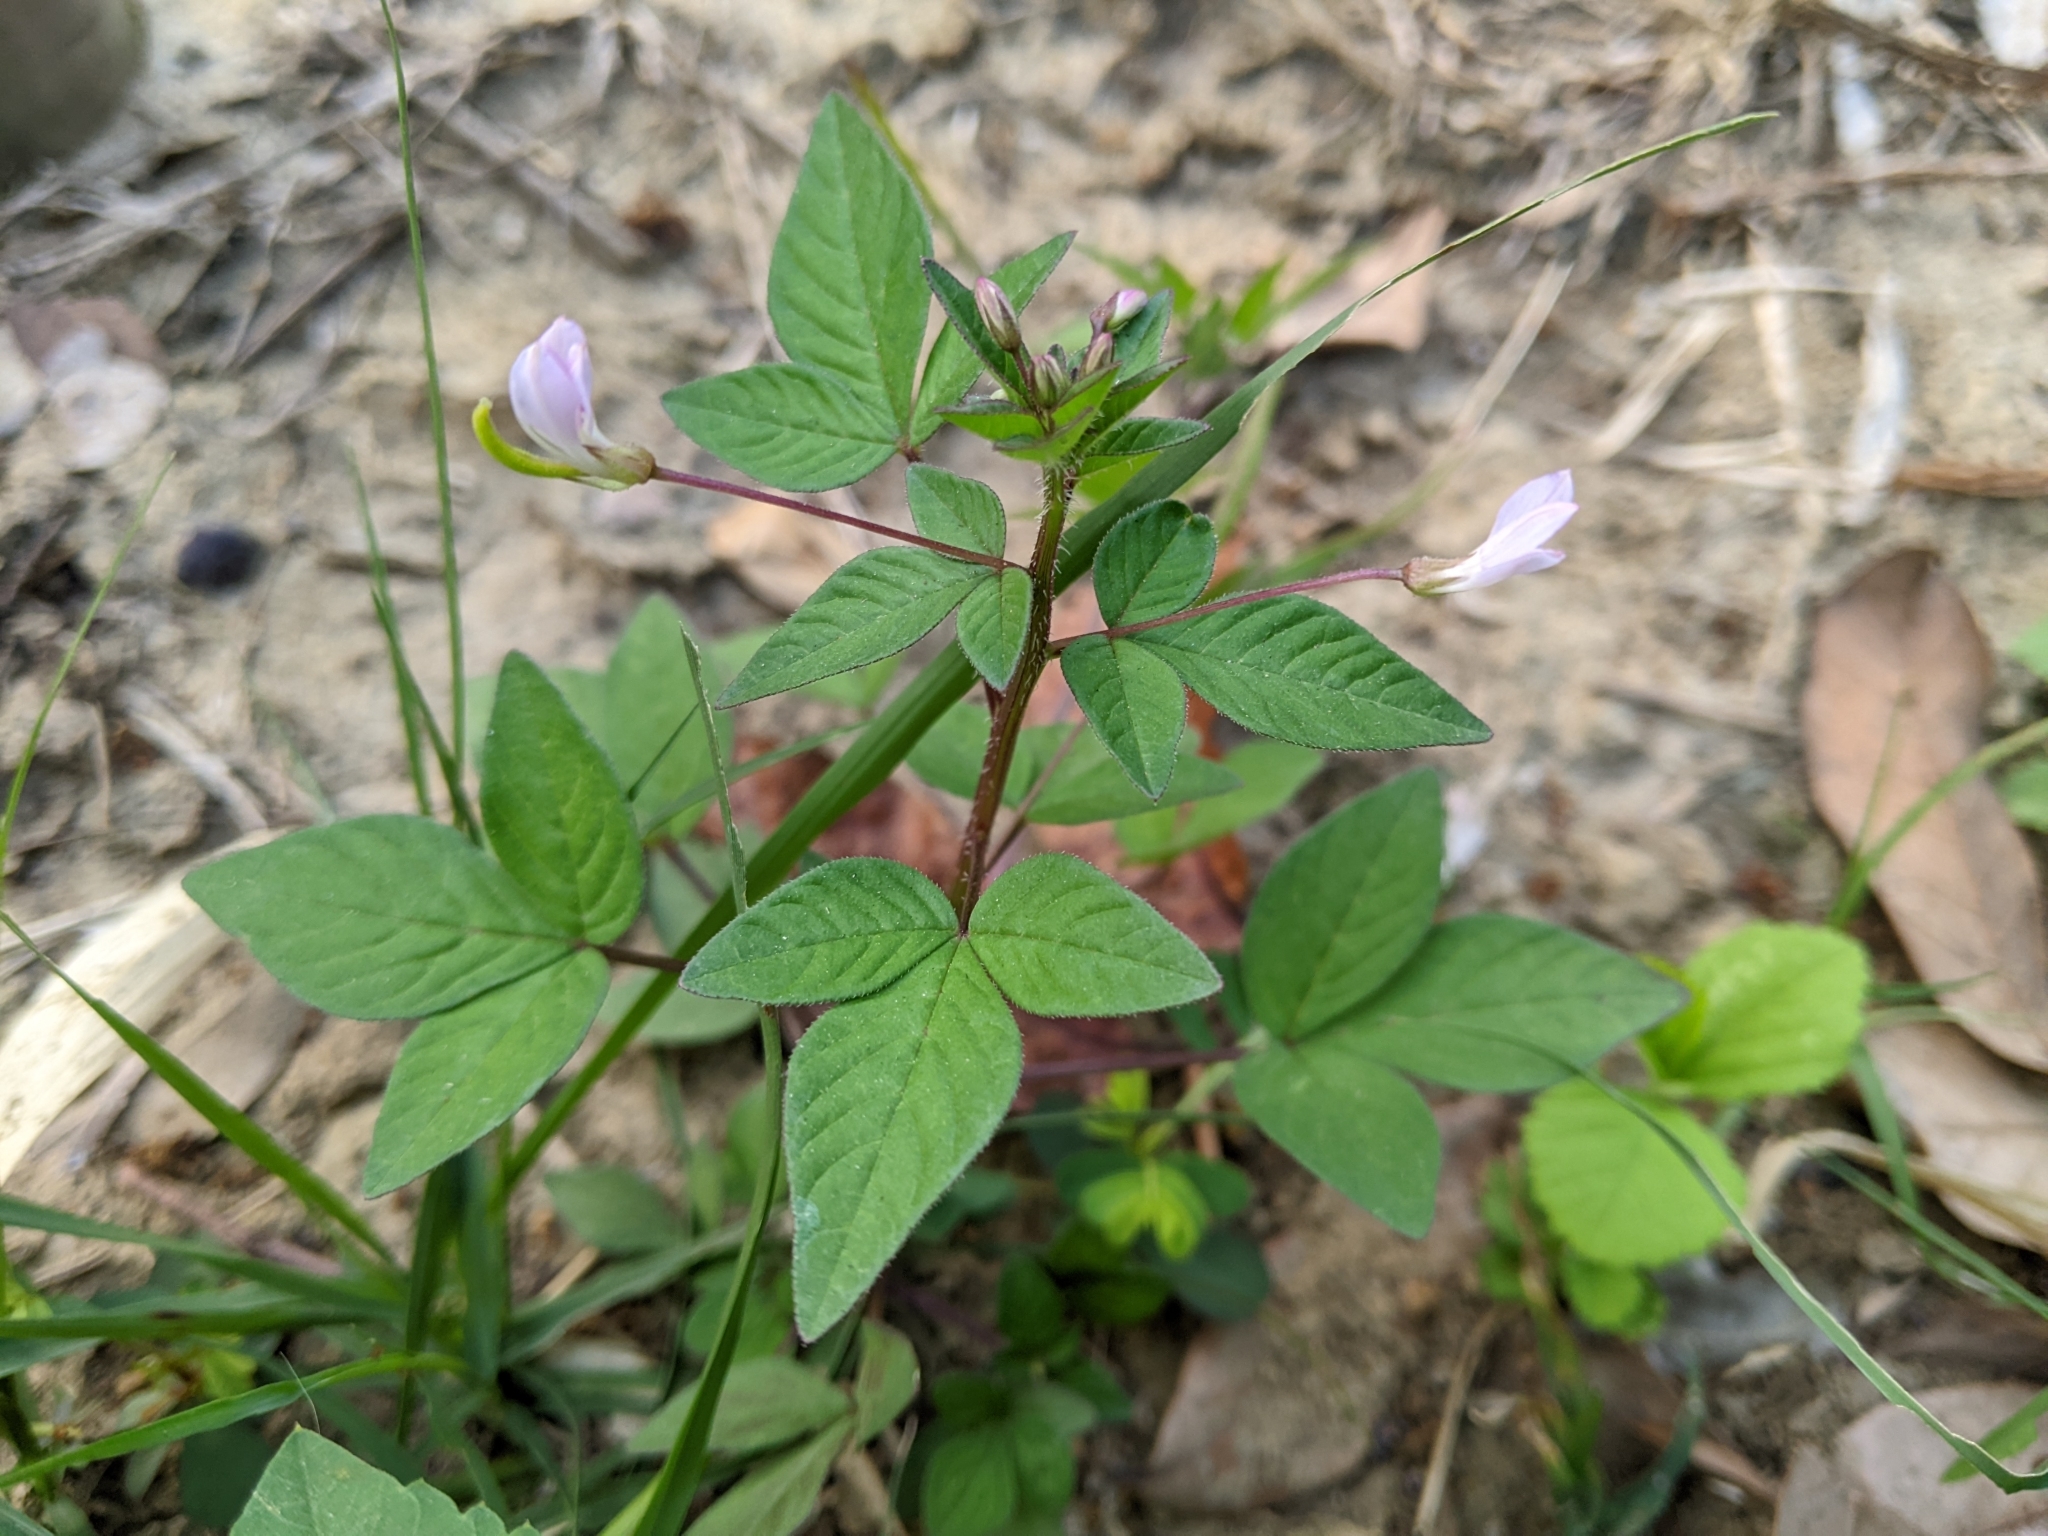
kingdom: Plantae
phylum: Tracheophyta
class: Magnoliopsida
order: Brassicales
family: Cleomaceae
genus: Sieruela
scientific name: Sieruela rutidosperma
